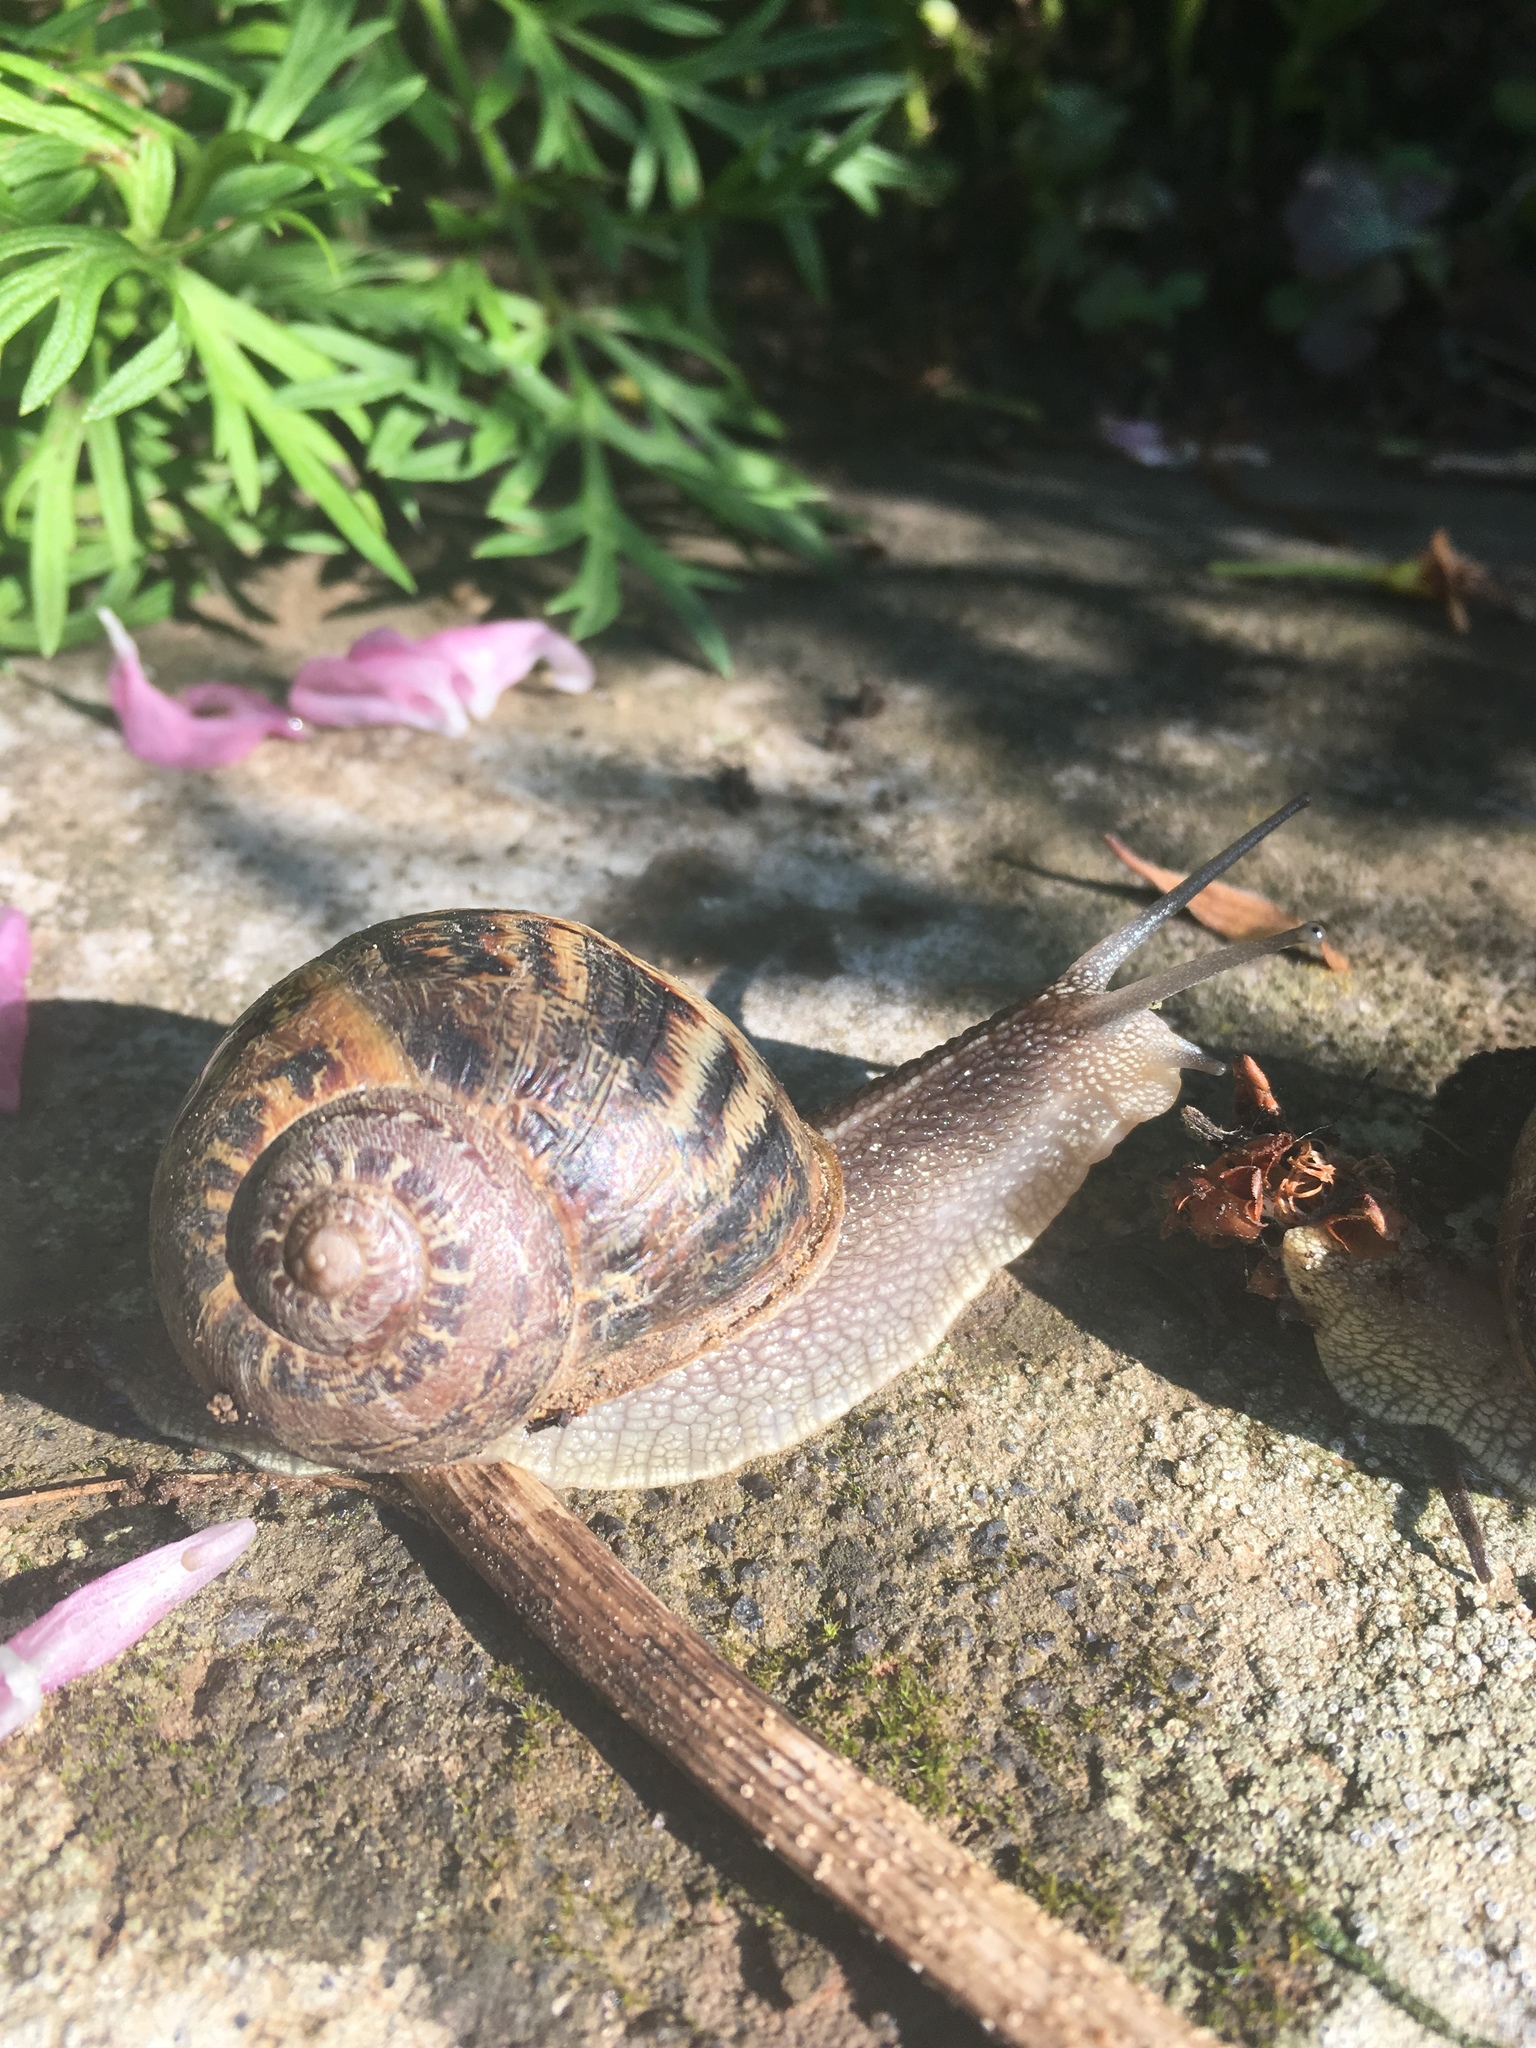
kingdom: Animalia
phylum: Mollusca
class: Gastropoda
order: Stylommatophora
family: Helicidae
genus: Cornu
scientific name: Cornu aspersum
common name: Brown garden snail
